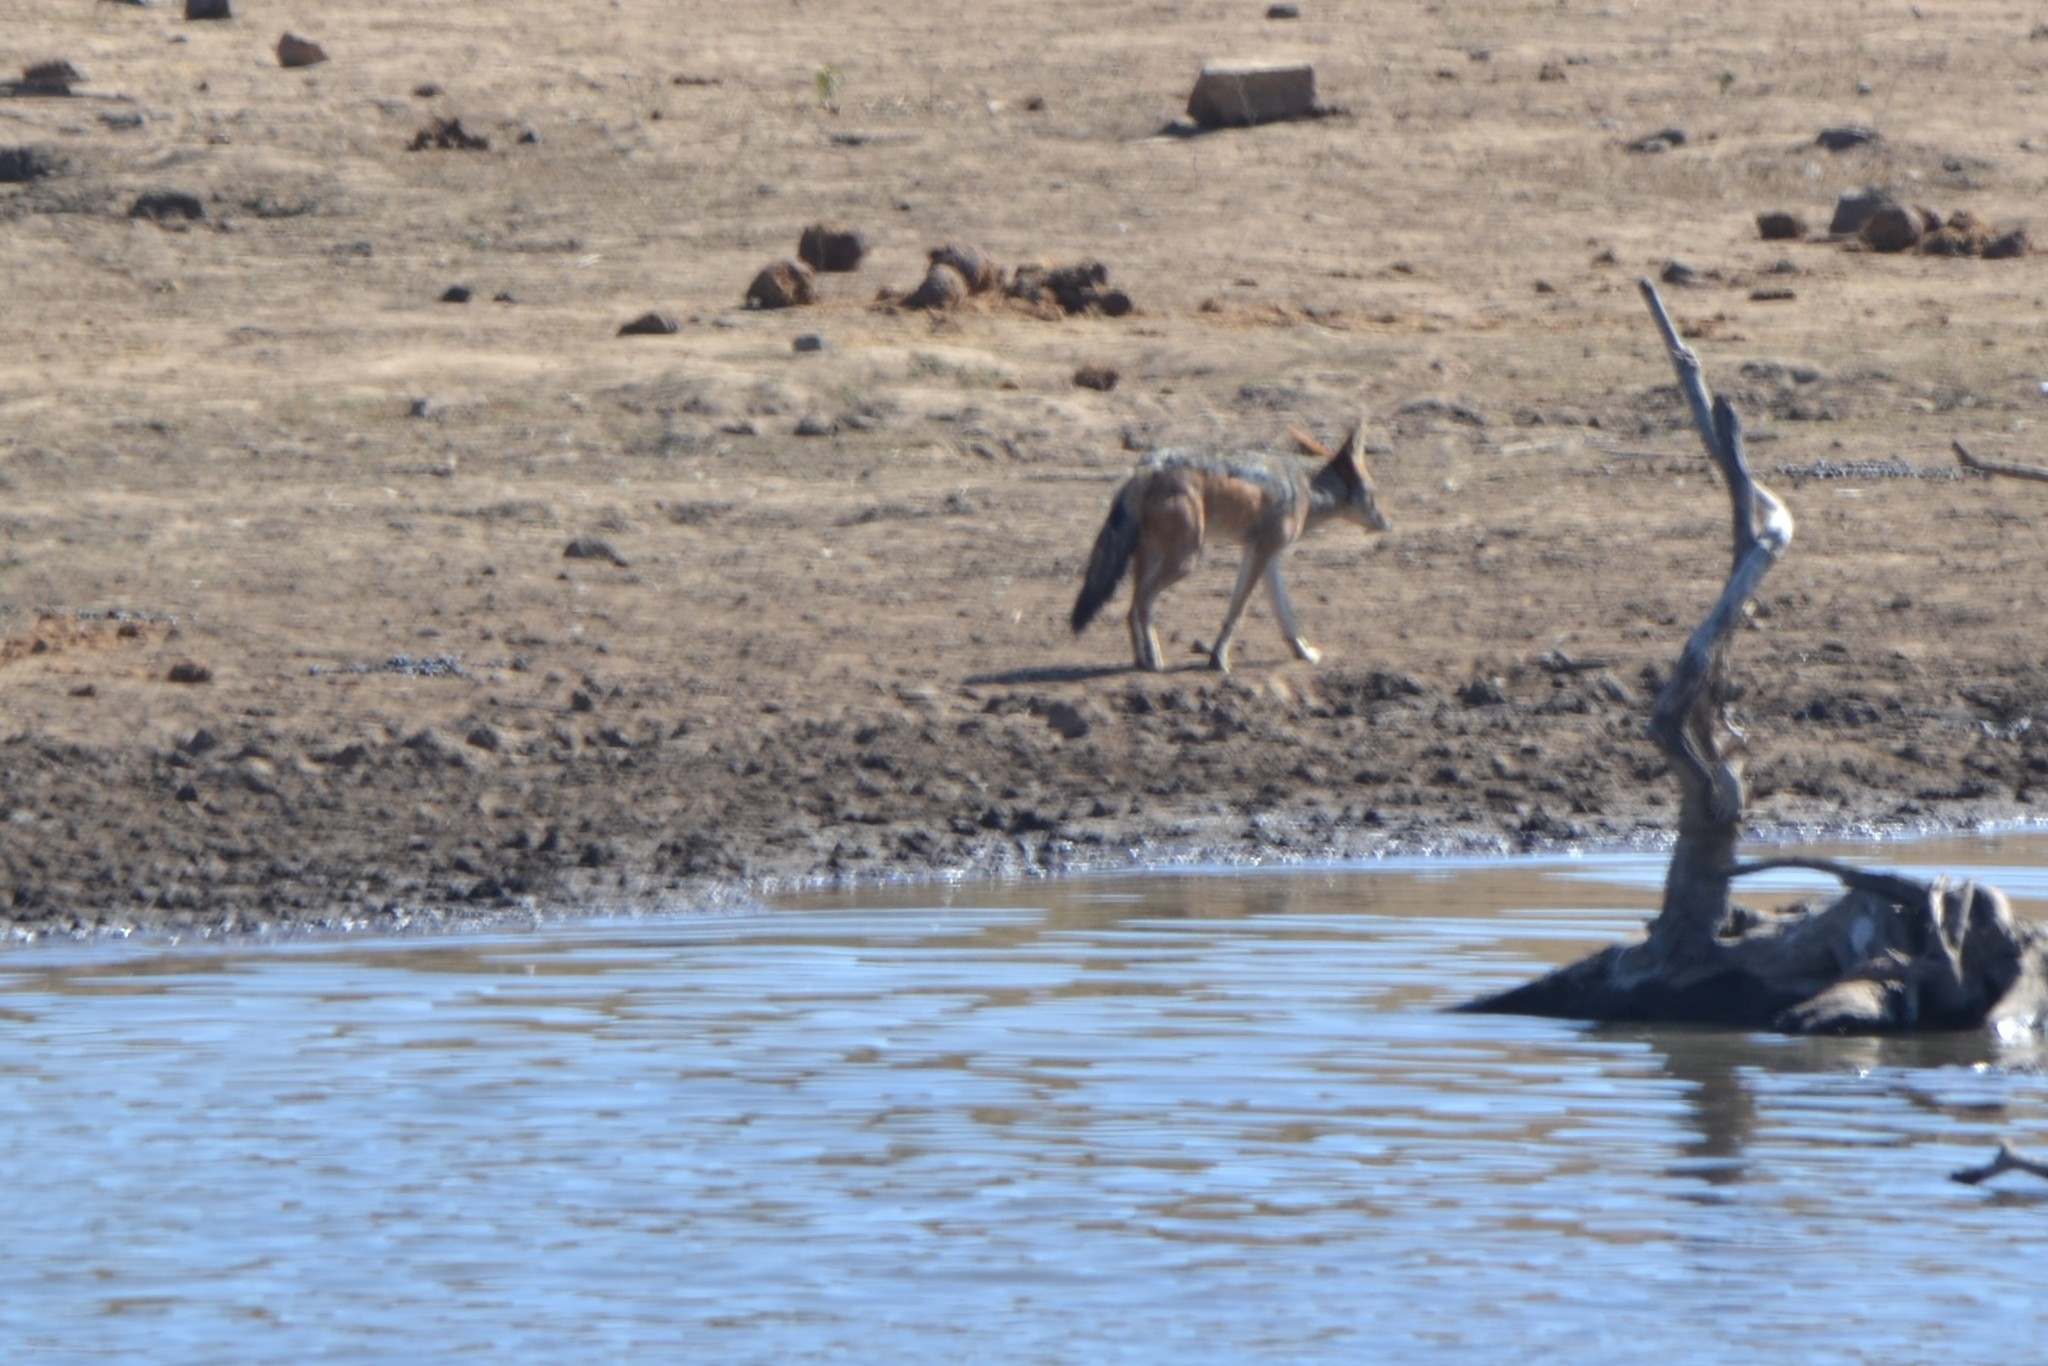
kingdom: Animalia
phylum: Chordata
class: Mammalia
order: Carnivora
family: Canidae
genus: Lupulella
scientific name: Lupulella
